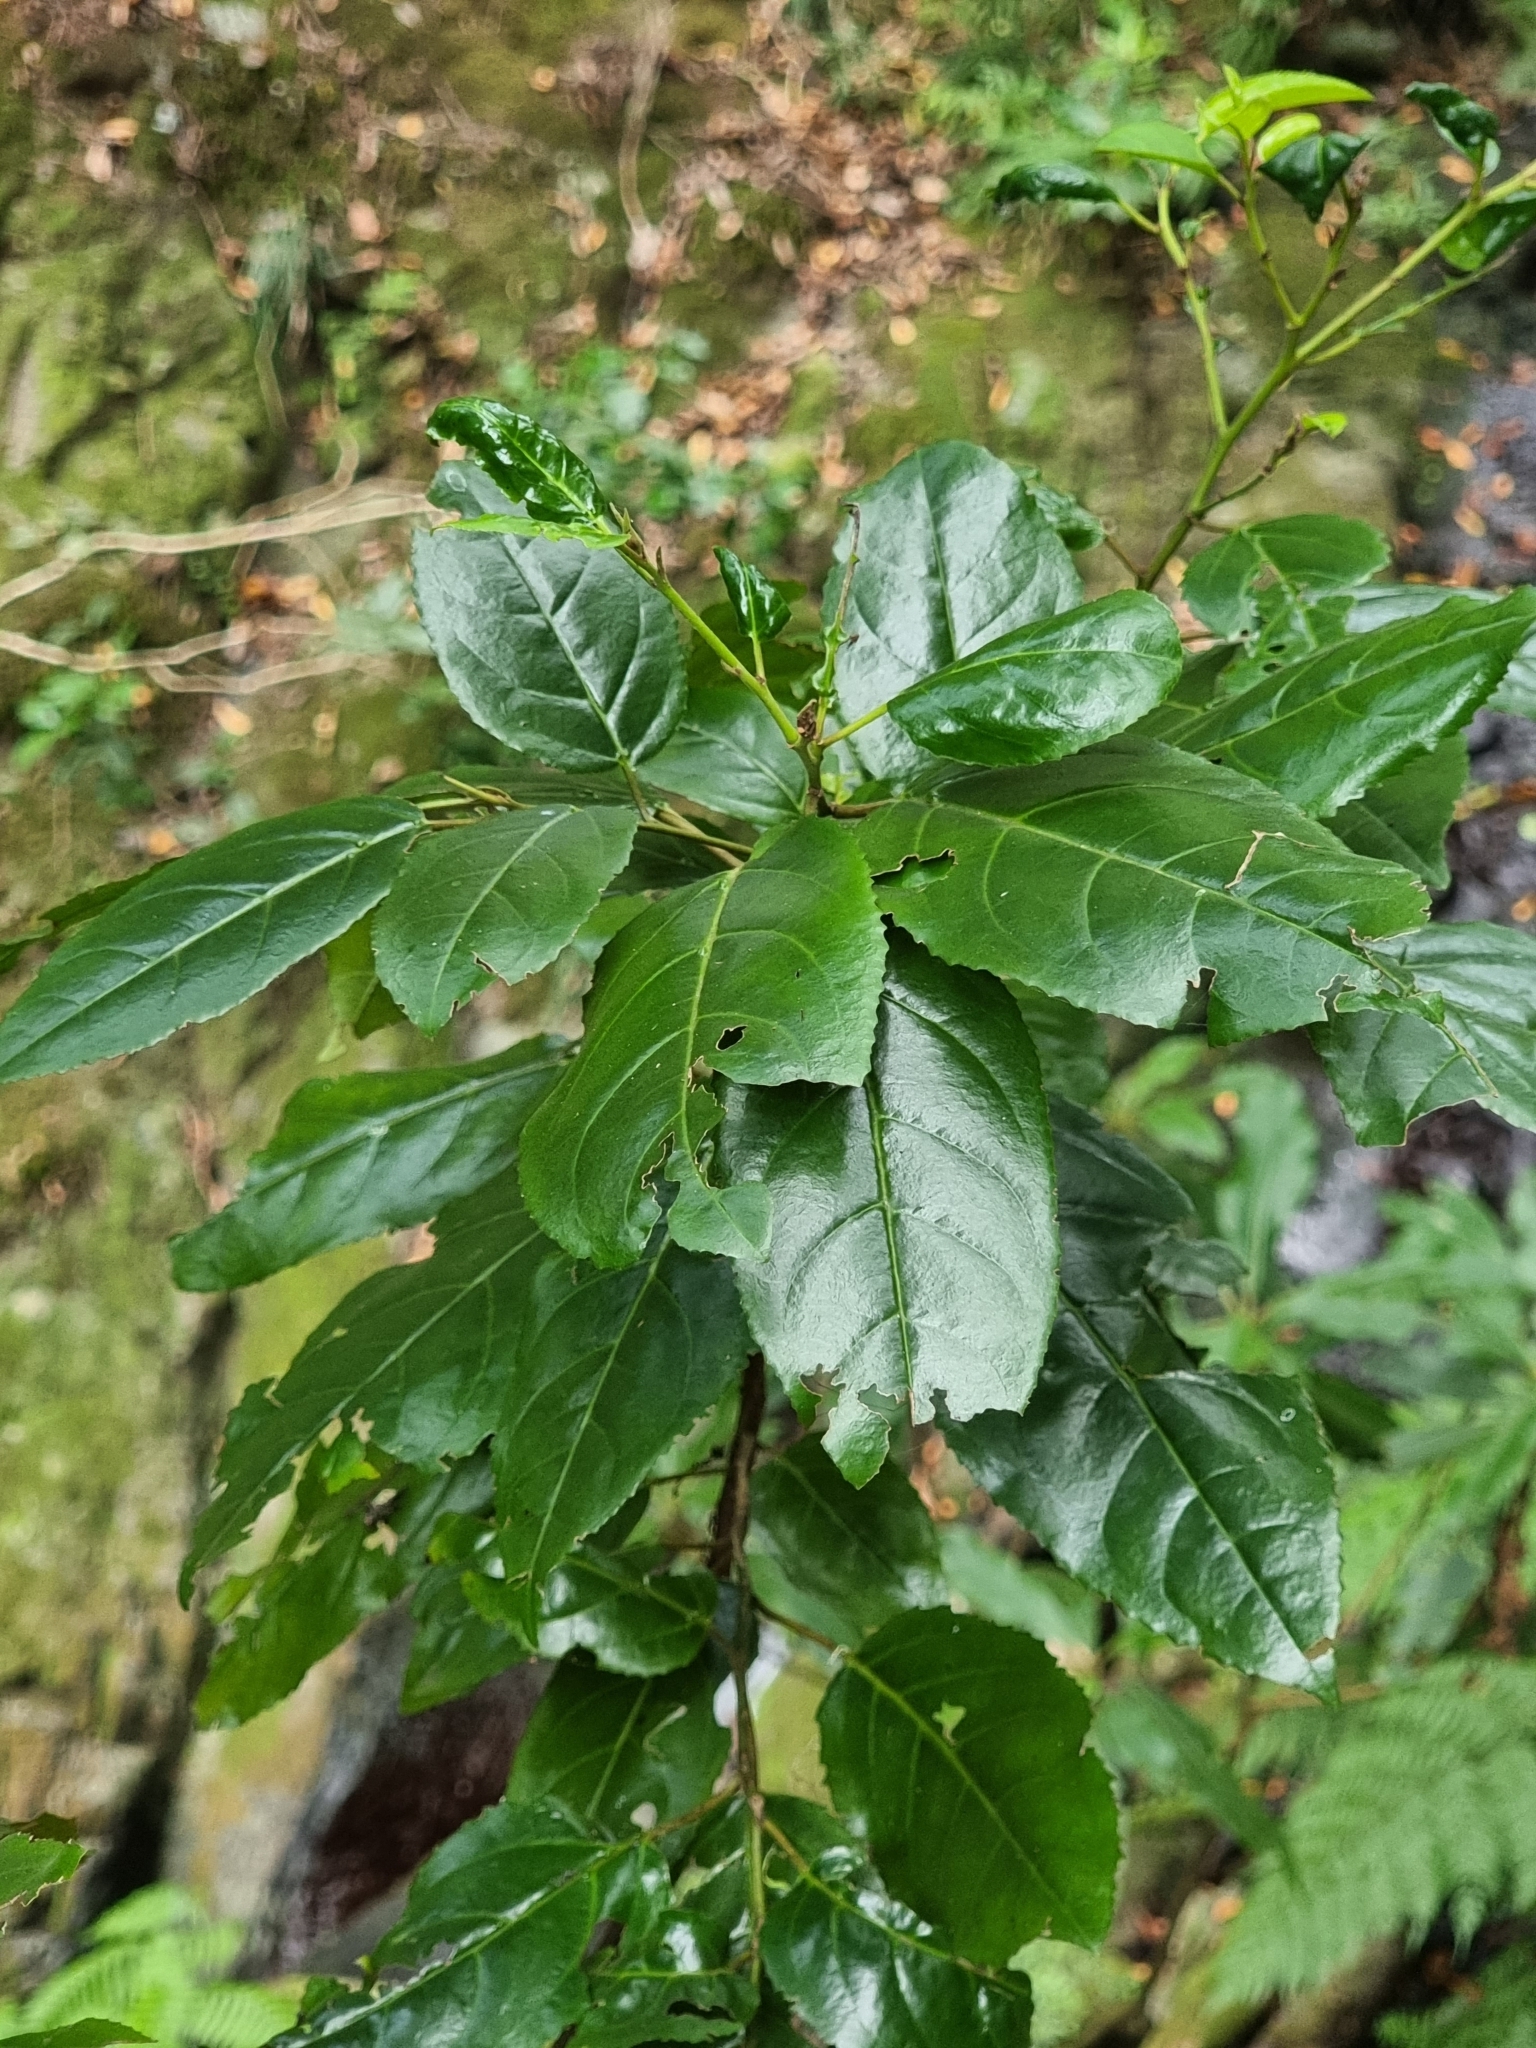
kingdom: Plantae
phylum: Tracheophyta
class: Magnoliopsida
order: Rosales
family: Rhamnaceae
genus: Rhamnus
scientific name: Rhamnus glandulosa
